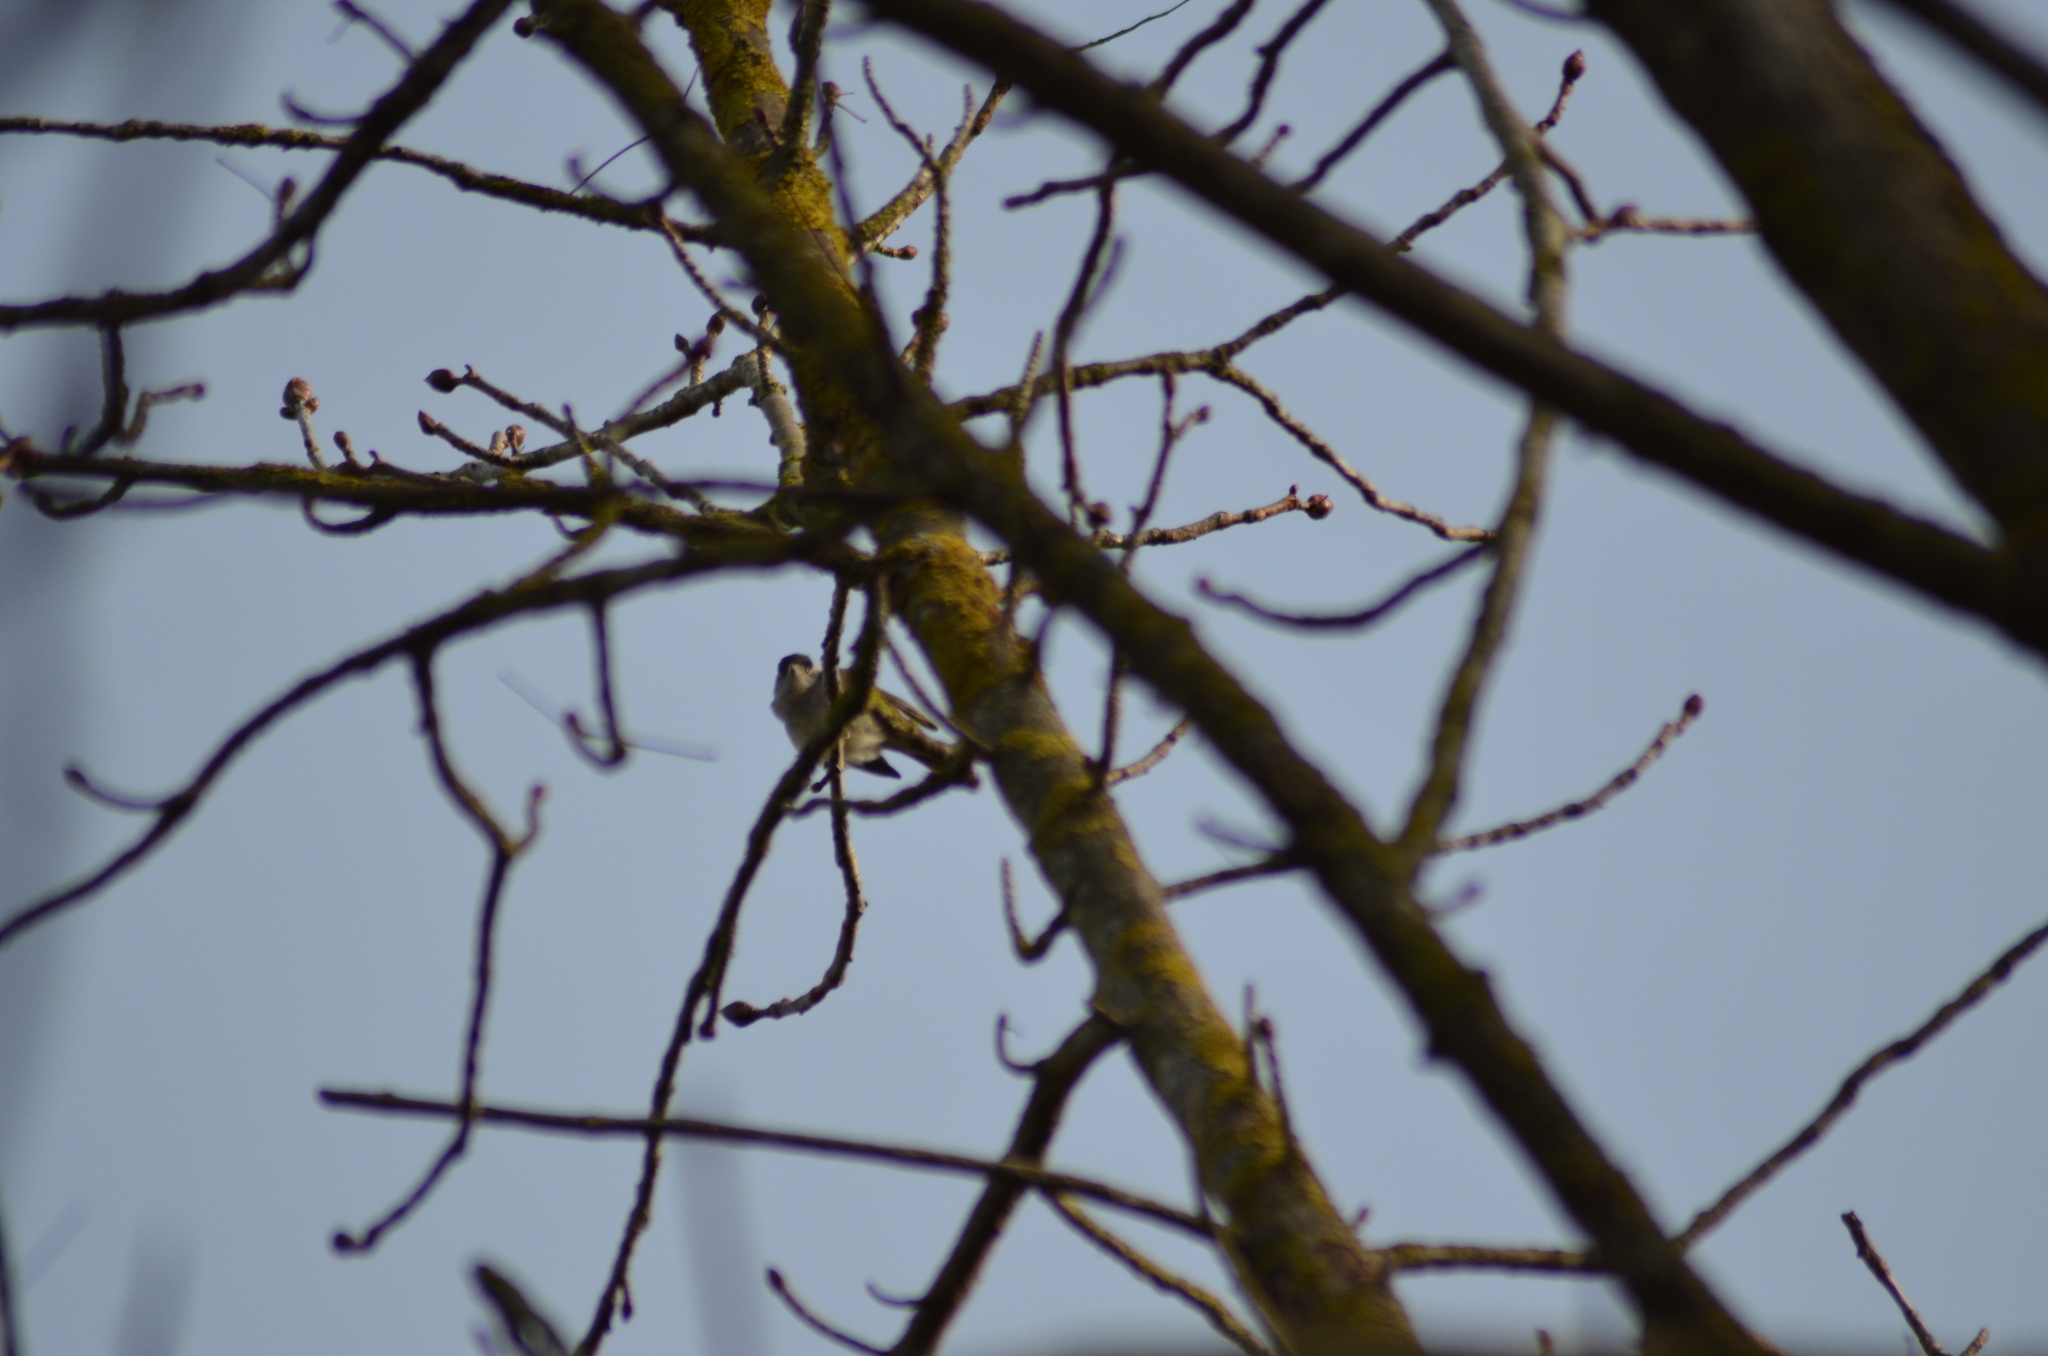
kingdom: Animalia
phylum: Chordata
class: Aves
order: Passeriformes
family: Sylviidae
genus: Sylvia
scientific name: Sylvia atricapilla
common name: Eurasian blackcap
